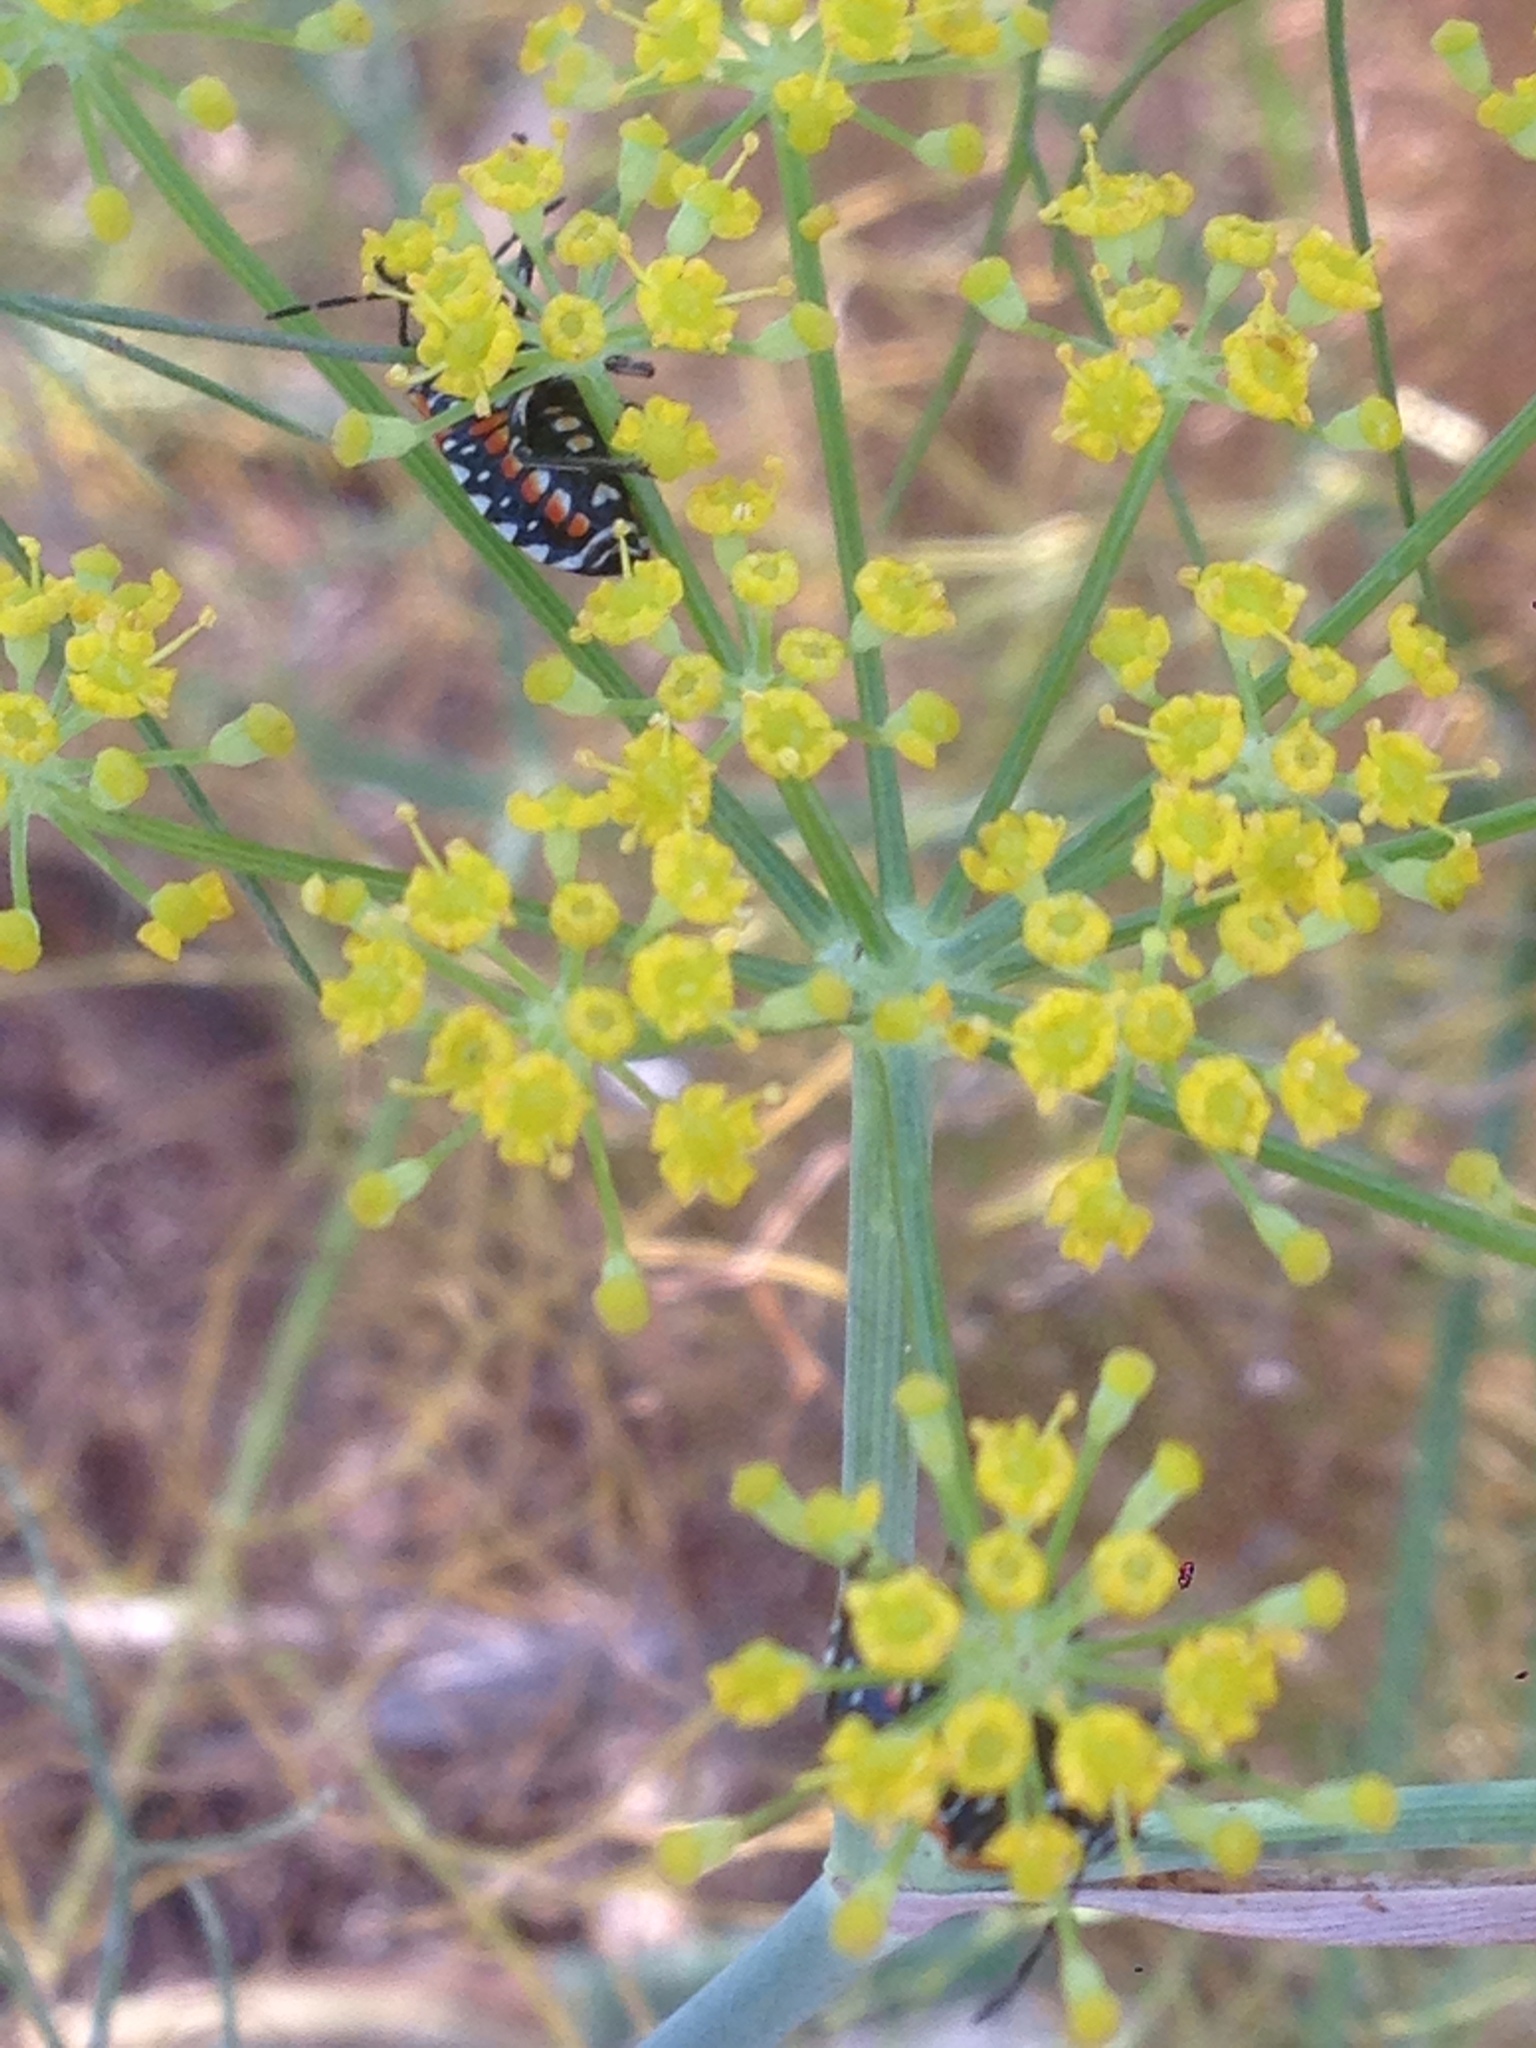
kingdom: Animalia
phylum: Arthropoda
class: Insecta
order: Hemiptera
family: Pentatomidae
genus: Murgantia
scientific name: Murgantia histrionica
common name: Harlequin bug
